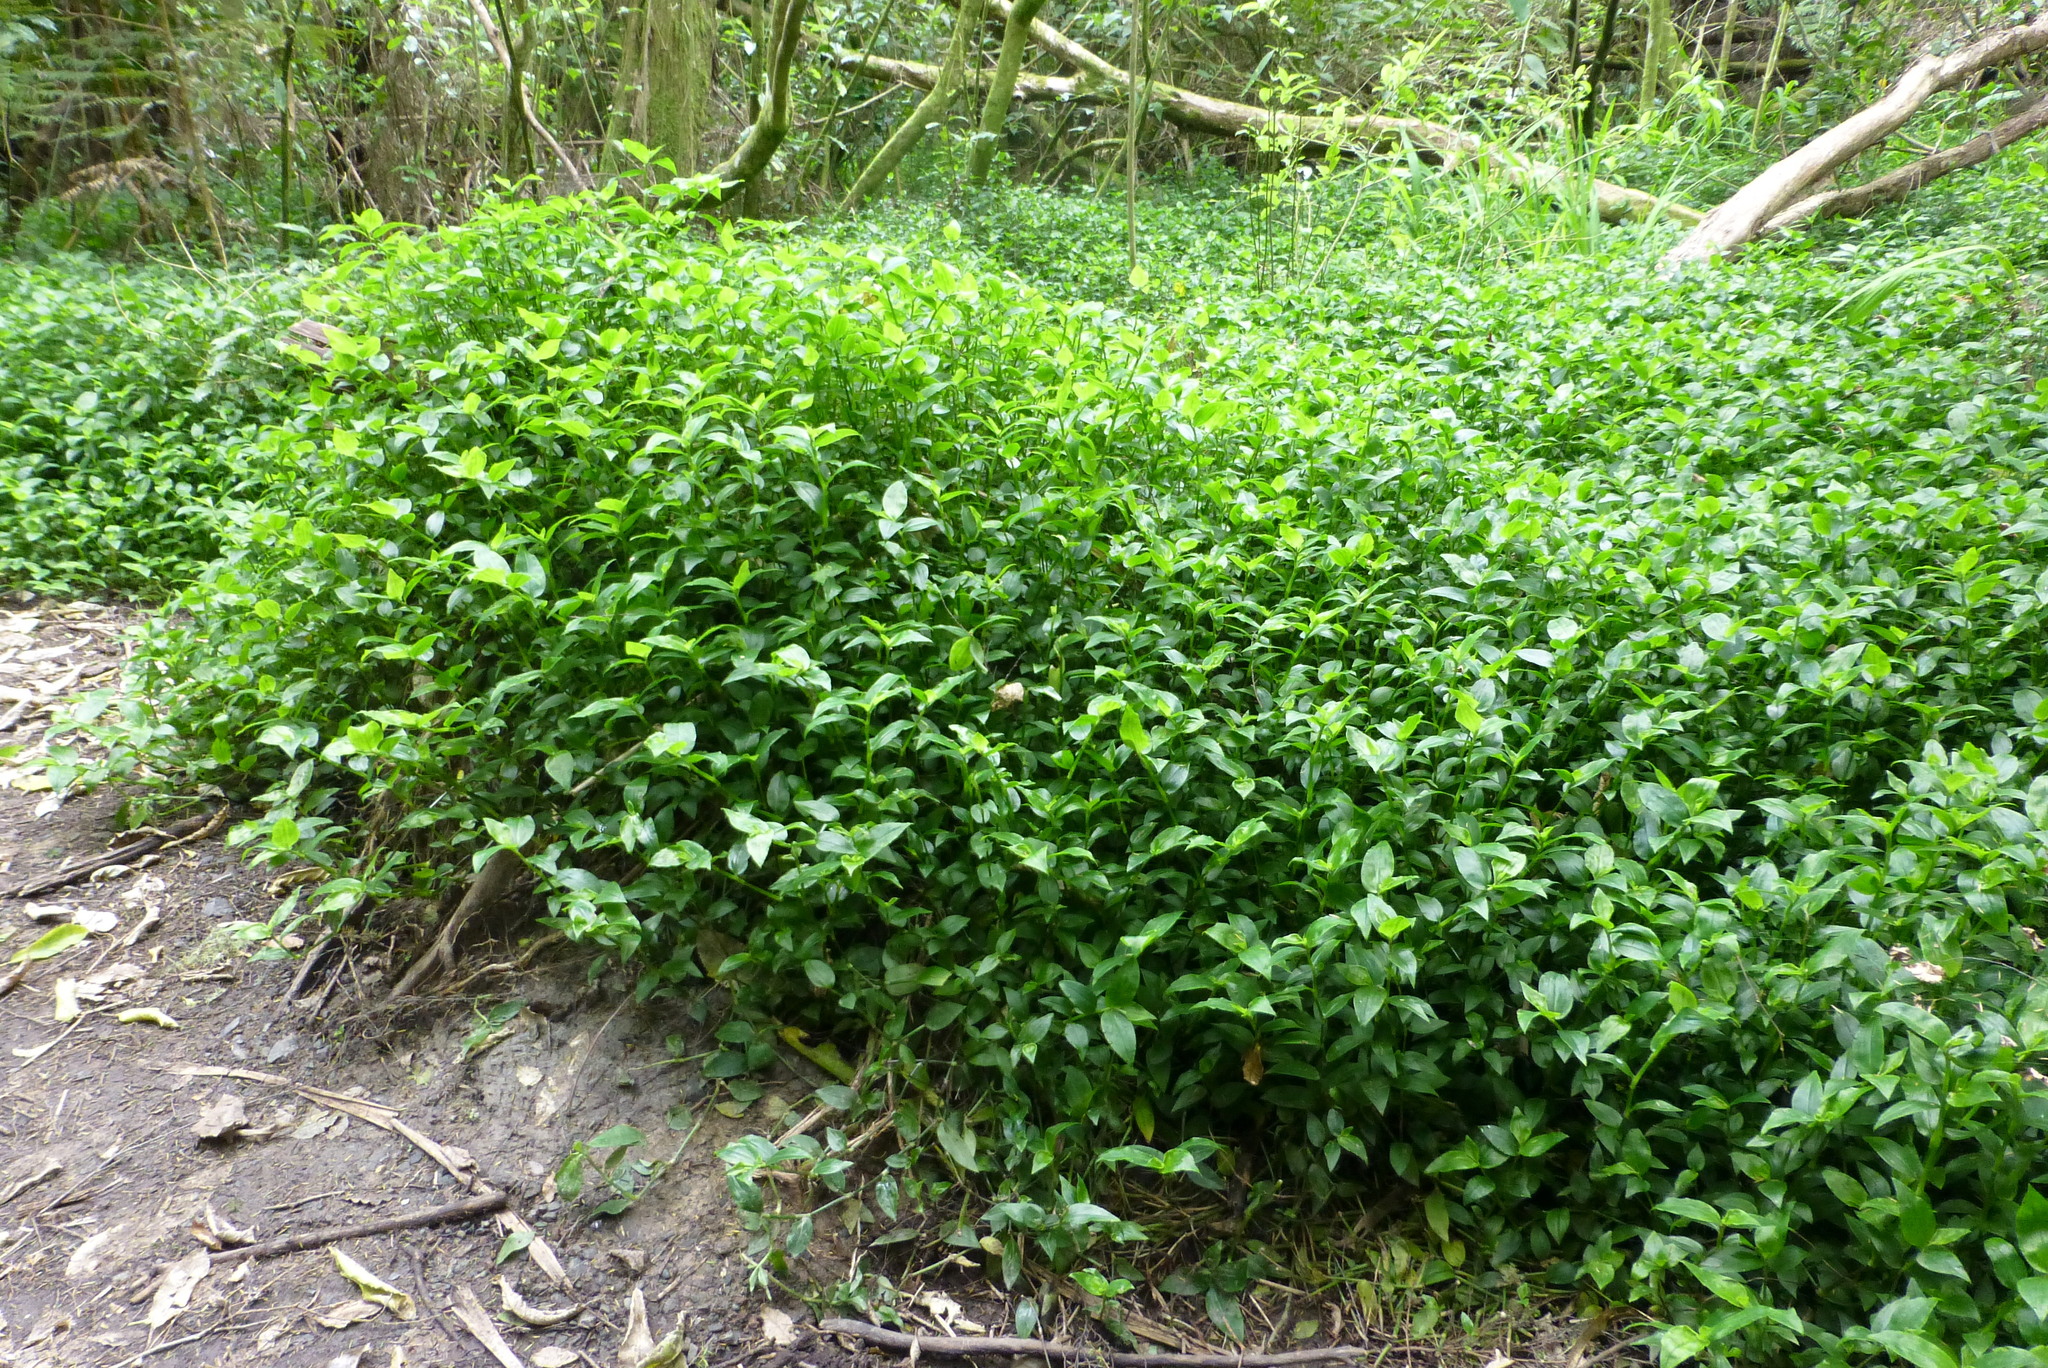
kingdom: Plantae
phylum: Tracheophyta
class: Liliopsida
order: Commelinales
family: Commelinaceae
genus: Tradescantia
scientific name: Tradescantia fluminensis
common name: Wandering-jew
